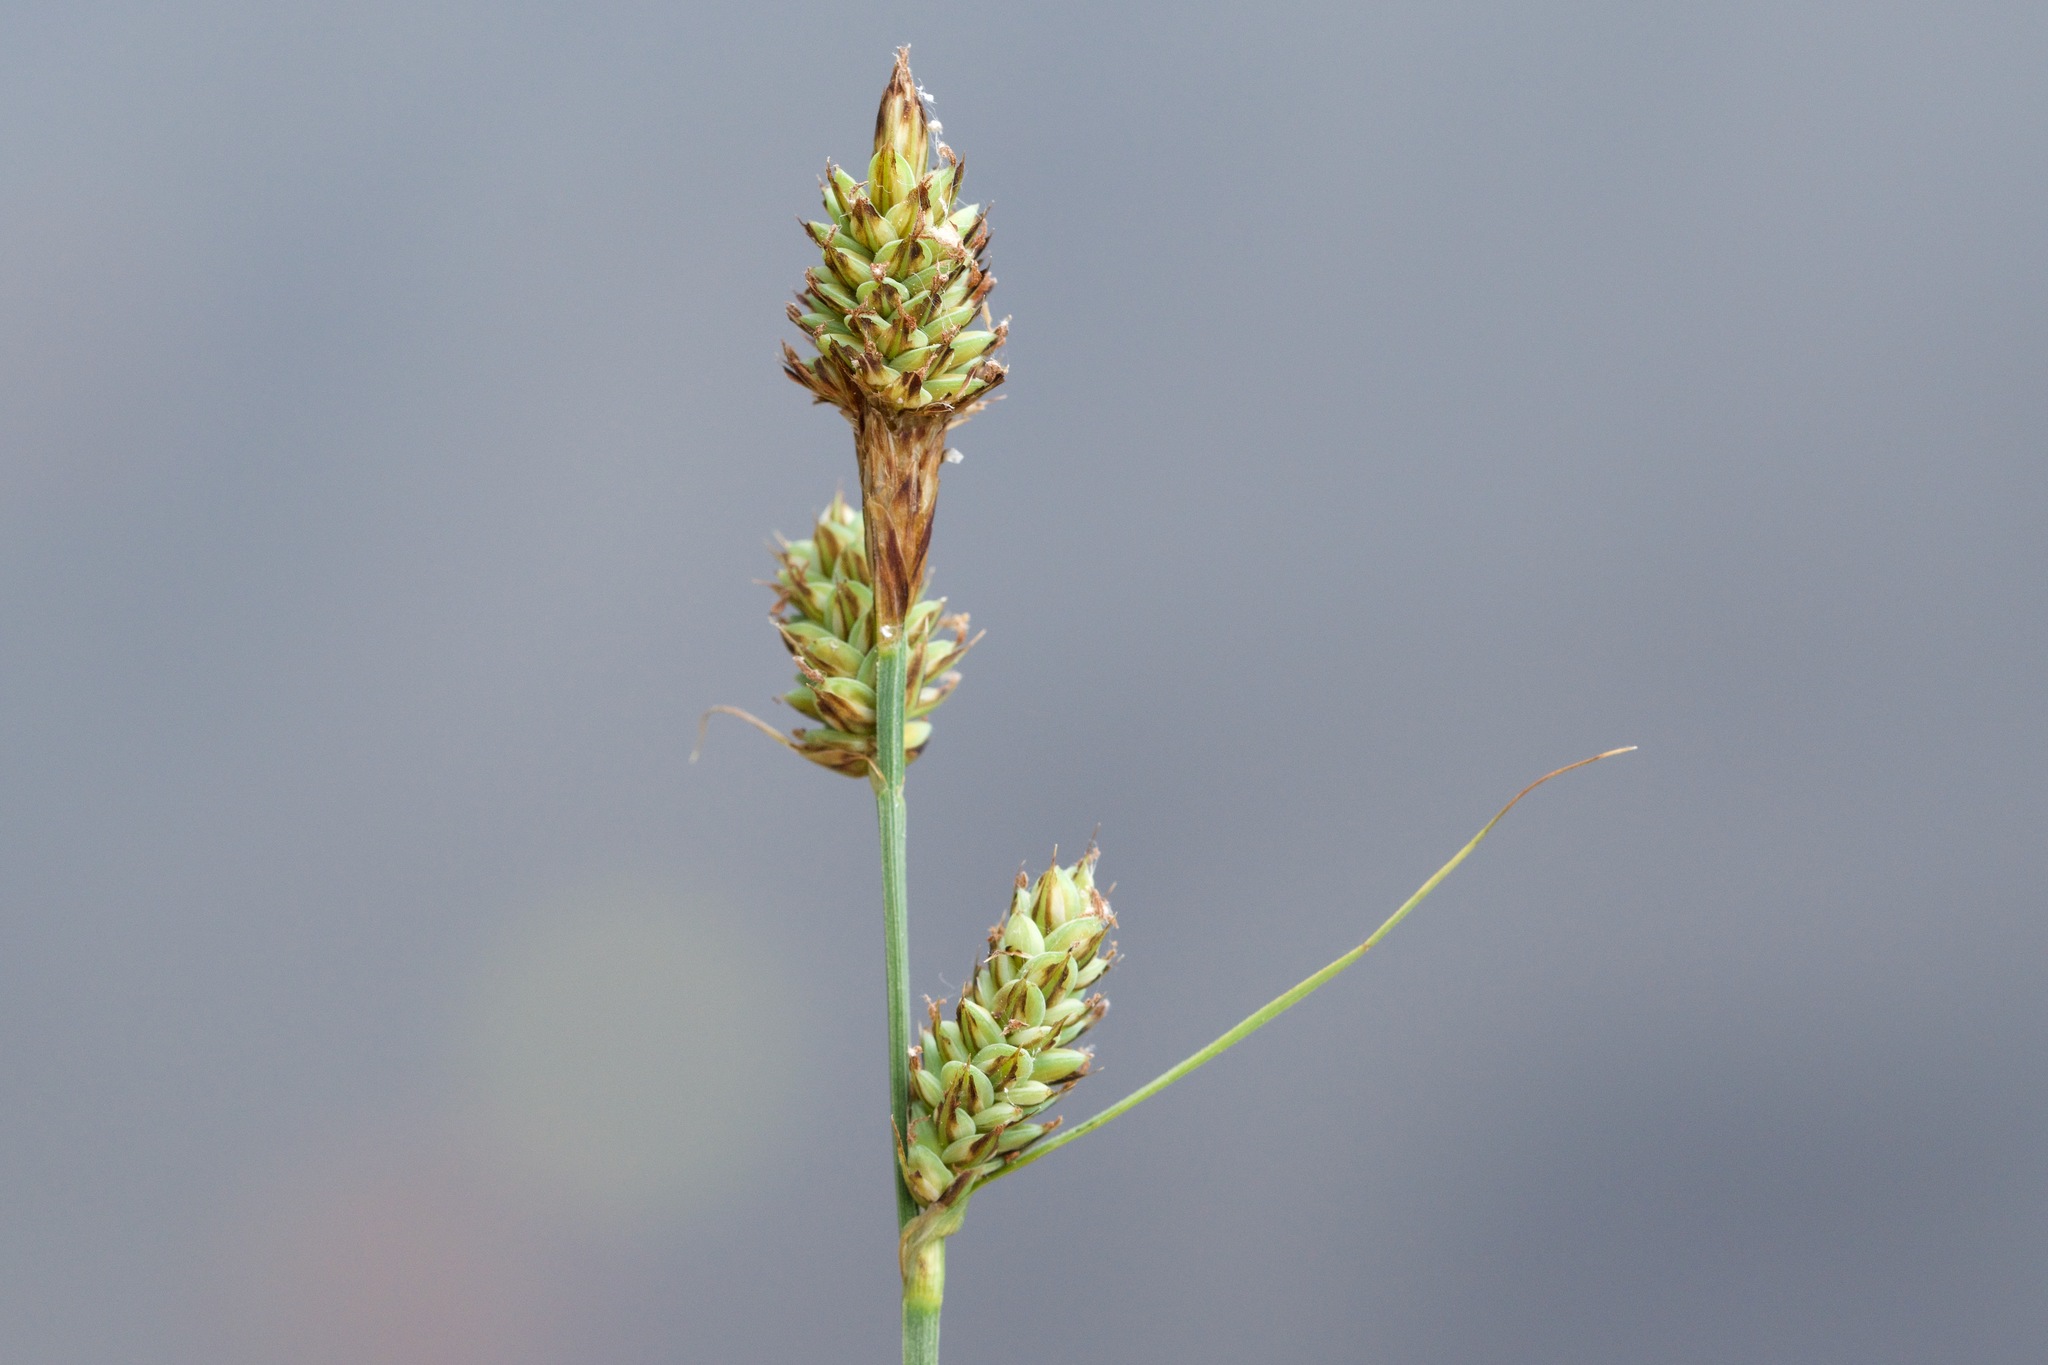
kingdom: Plantae
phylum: Tracheophyta
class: Liliopsida
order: Poales
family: Cyperaceae
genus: Carex
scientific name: Carex buxbaumii
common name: Club sedge
